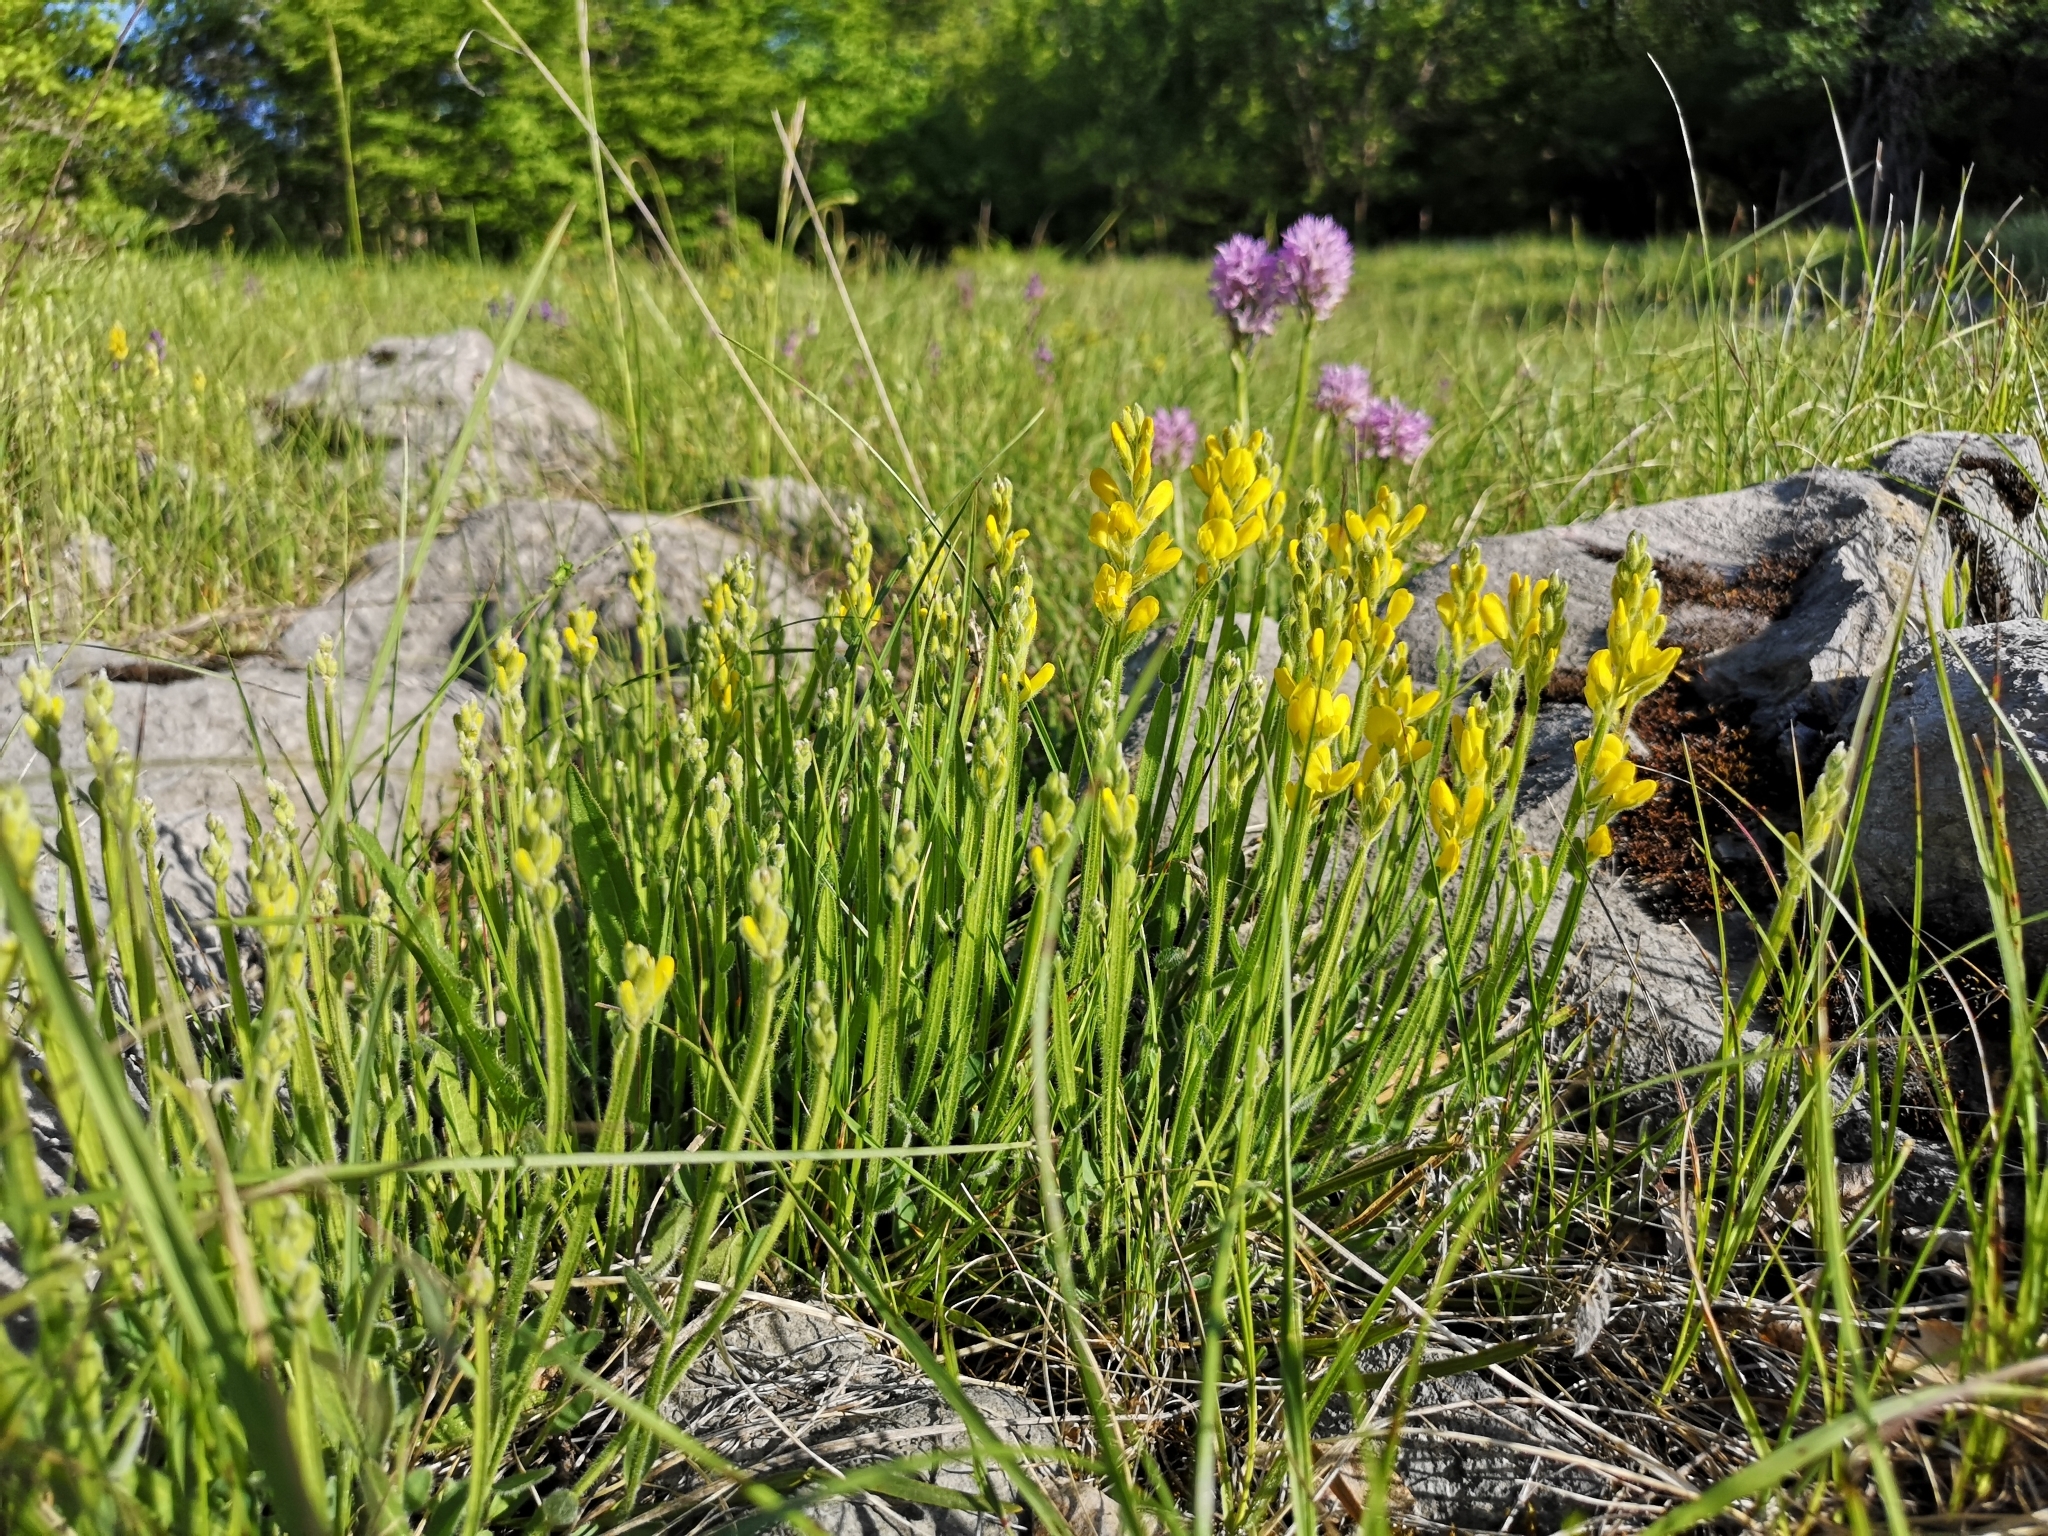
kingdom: Plantae
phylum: Tracheophyta
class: Magnoliopsida
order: Fabales
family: Fabaceae
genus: Genista
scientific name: Genista sagittalis
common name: Winged greenweed
